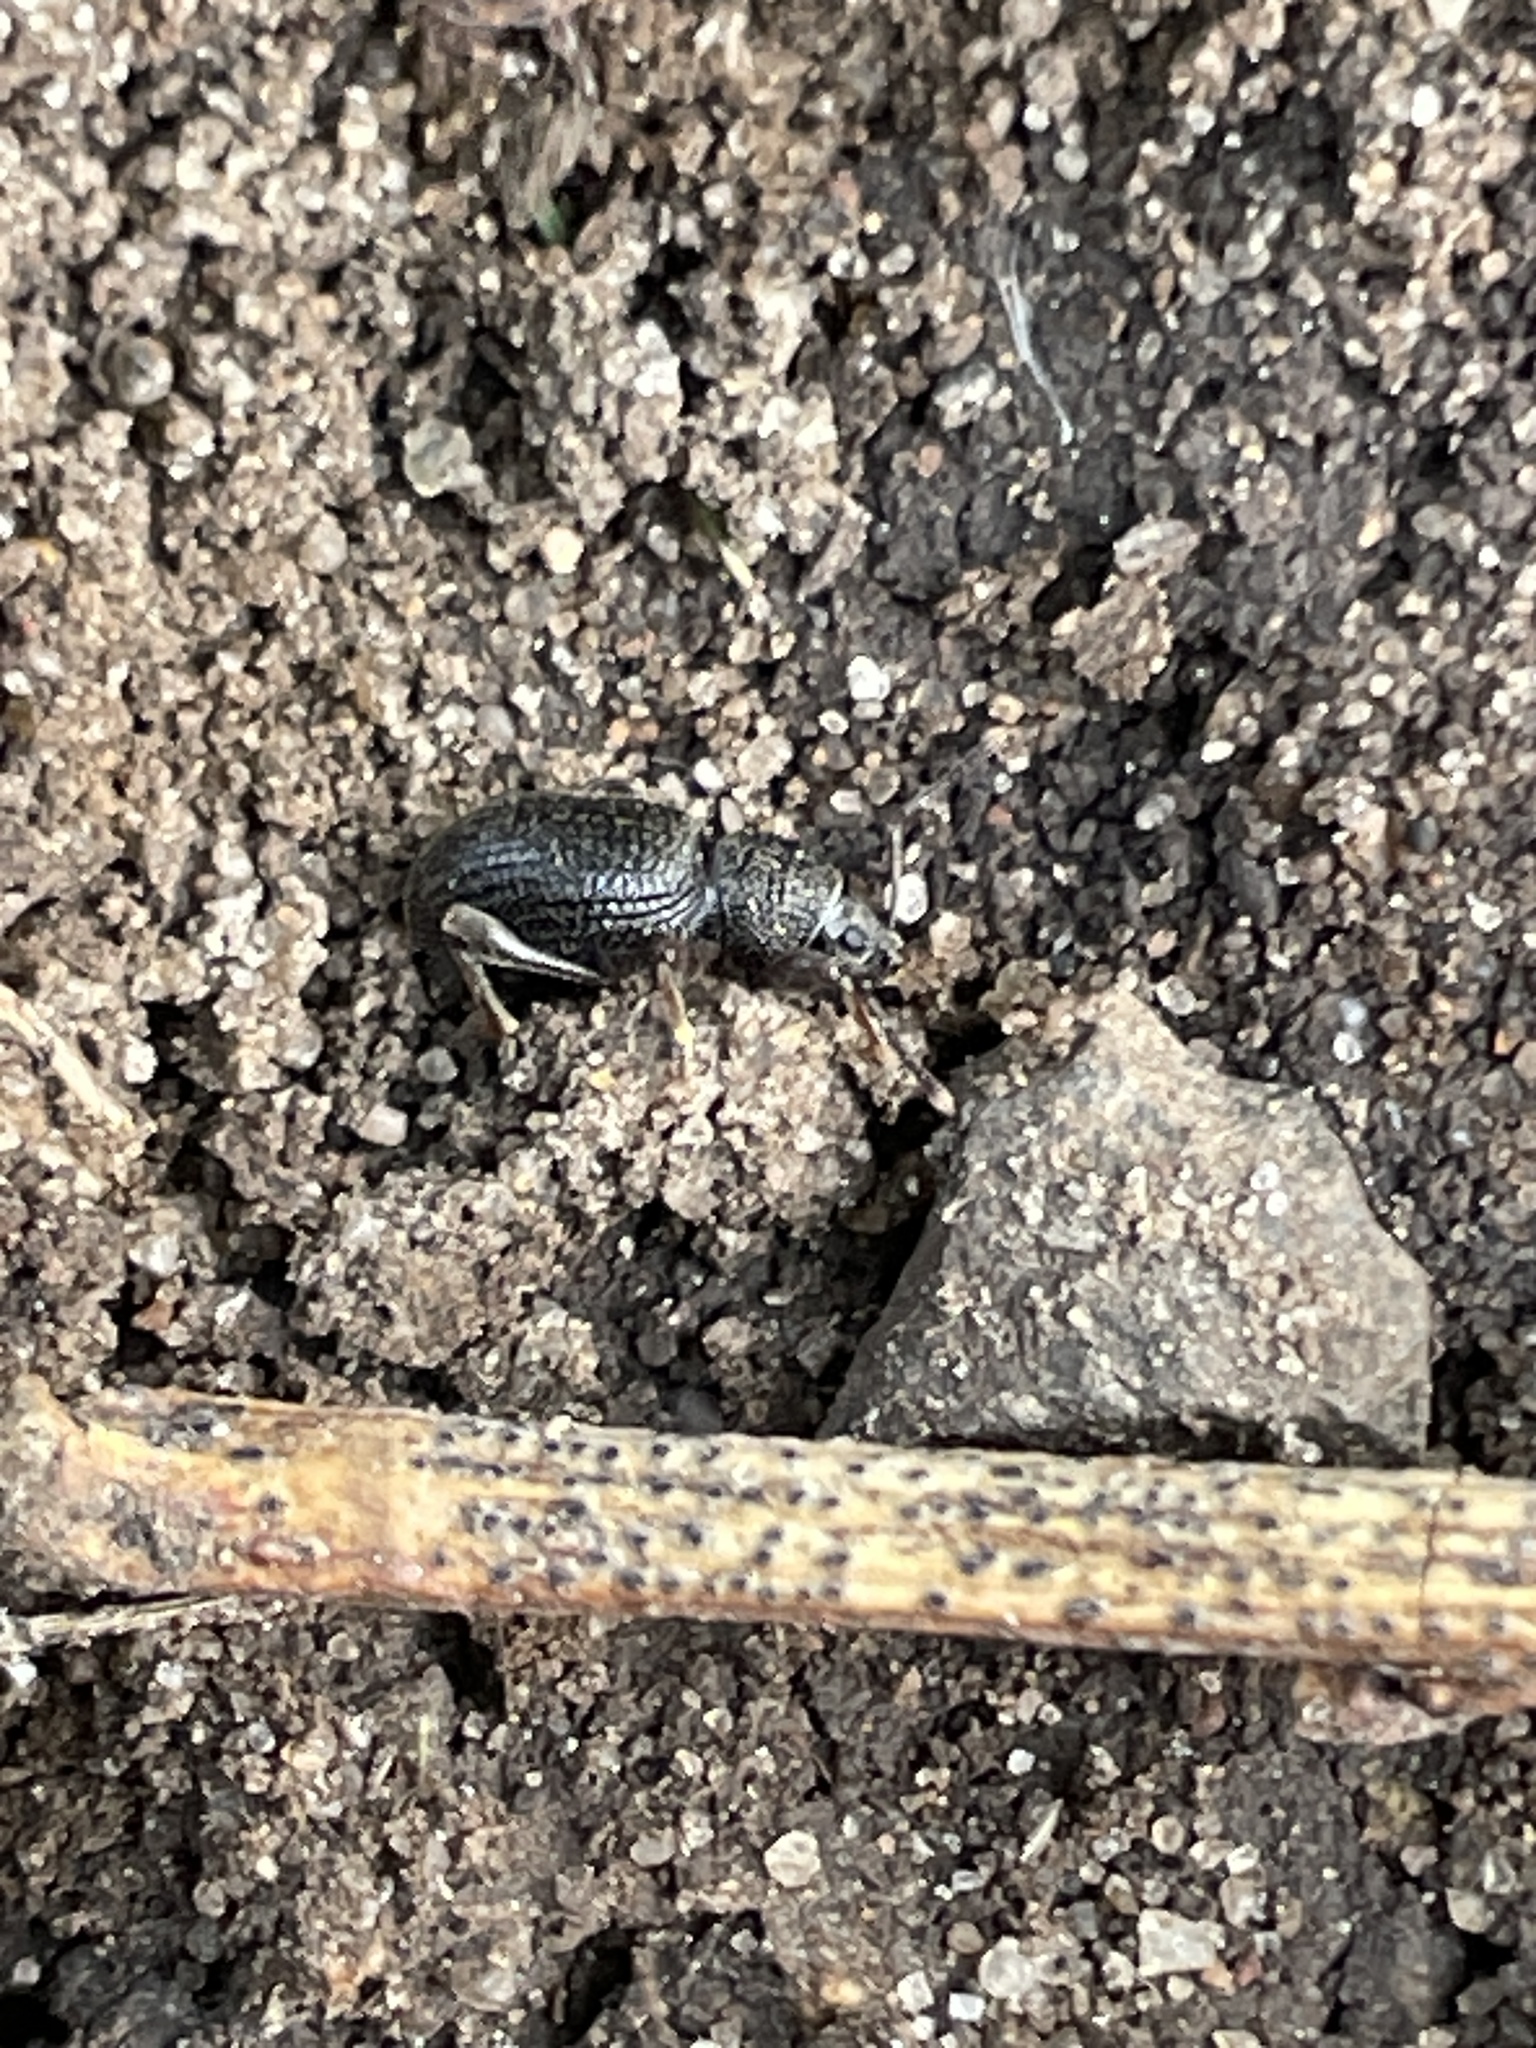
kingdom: Animalia
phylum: Arthropoda
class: Insecta
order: Coleoptera
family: Curculionidae
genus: Otiorhynchus
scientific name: Otiorhynchus ovatus
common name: Strawberry root weevil
